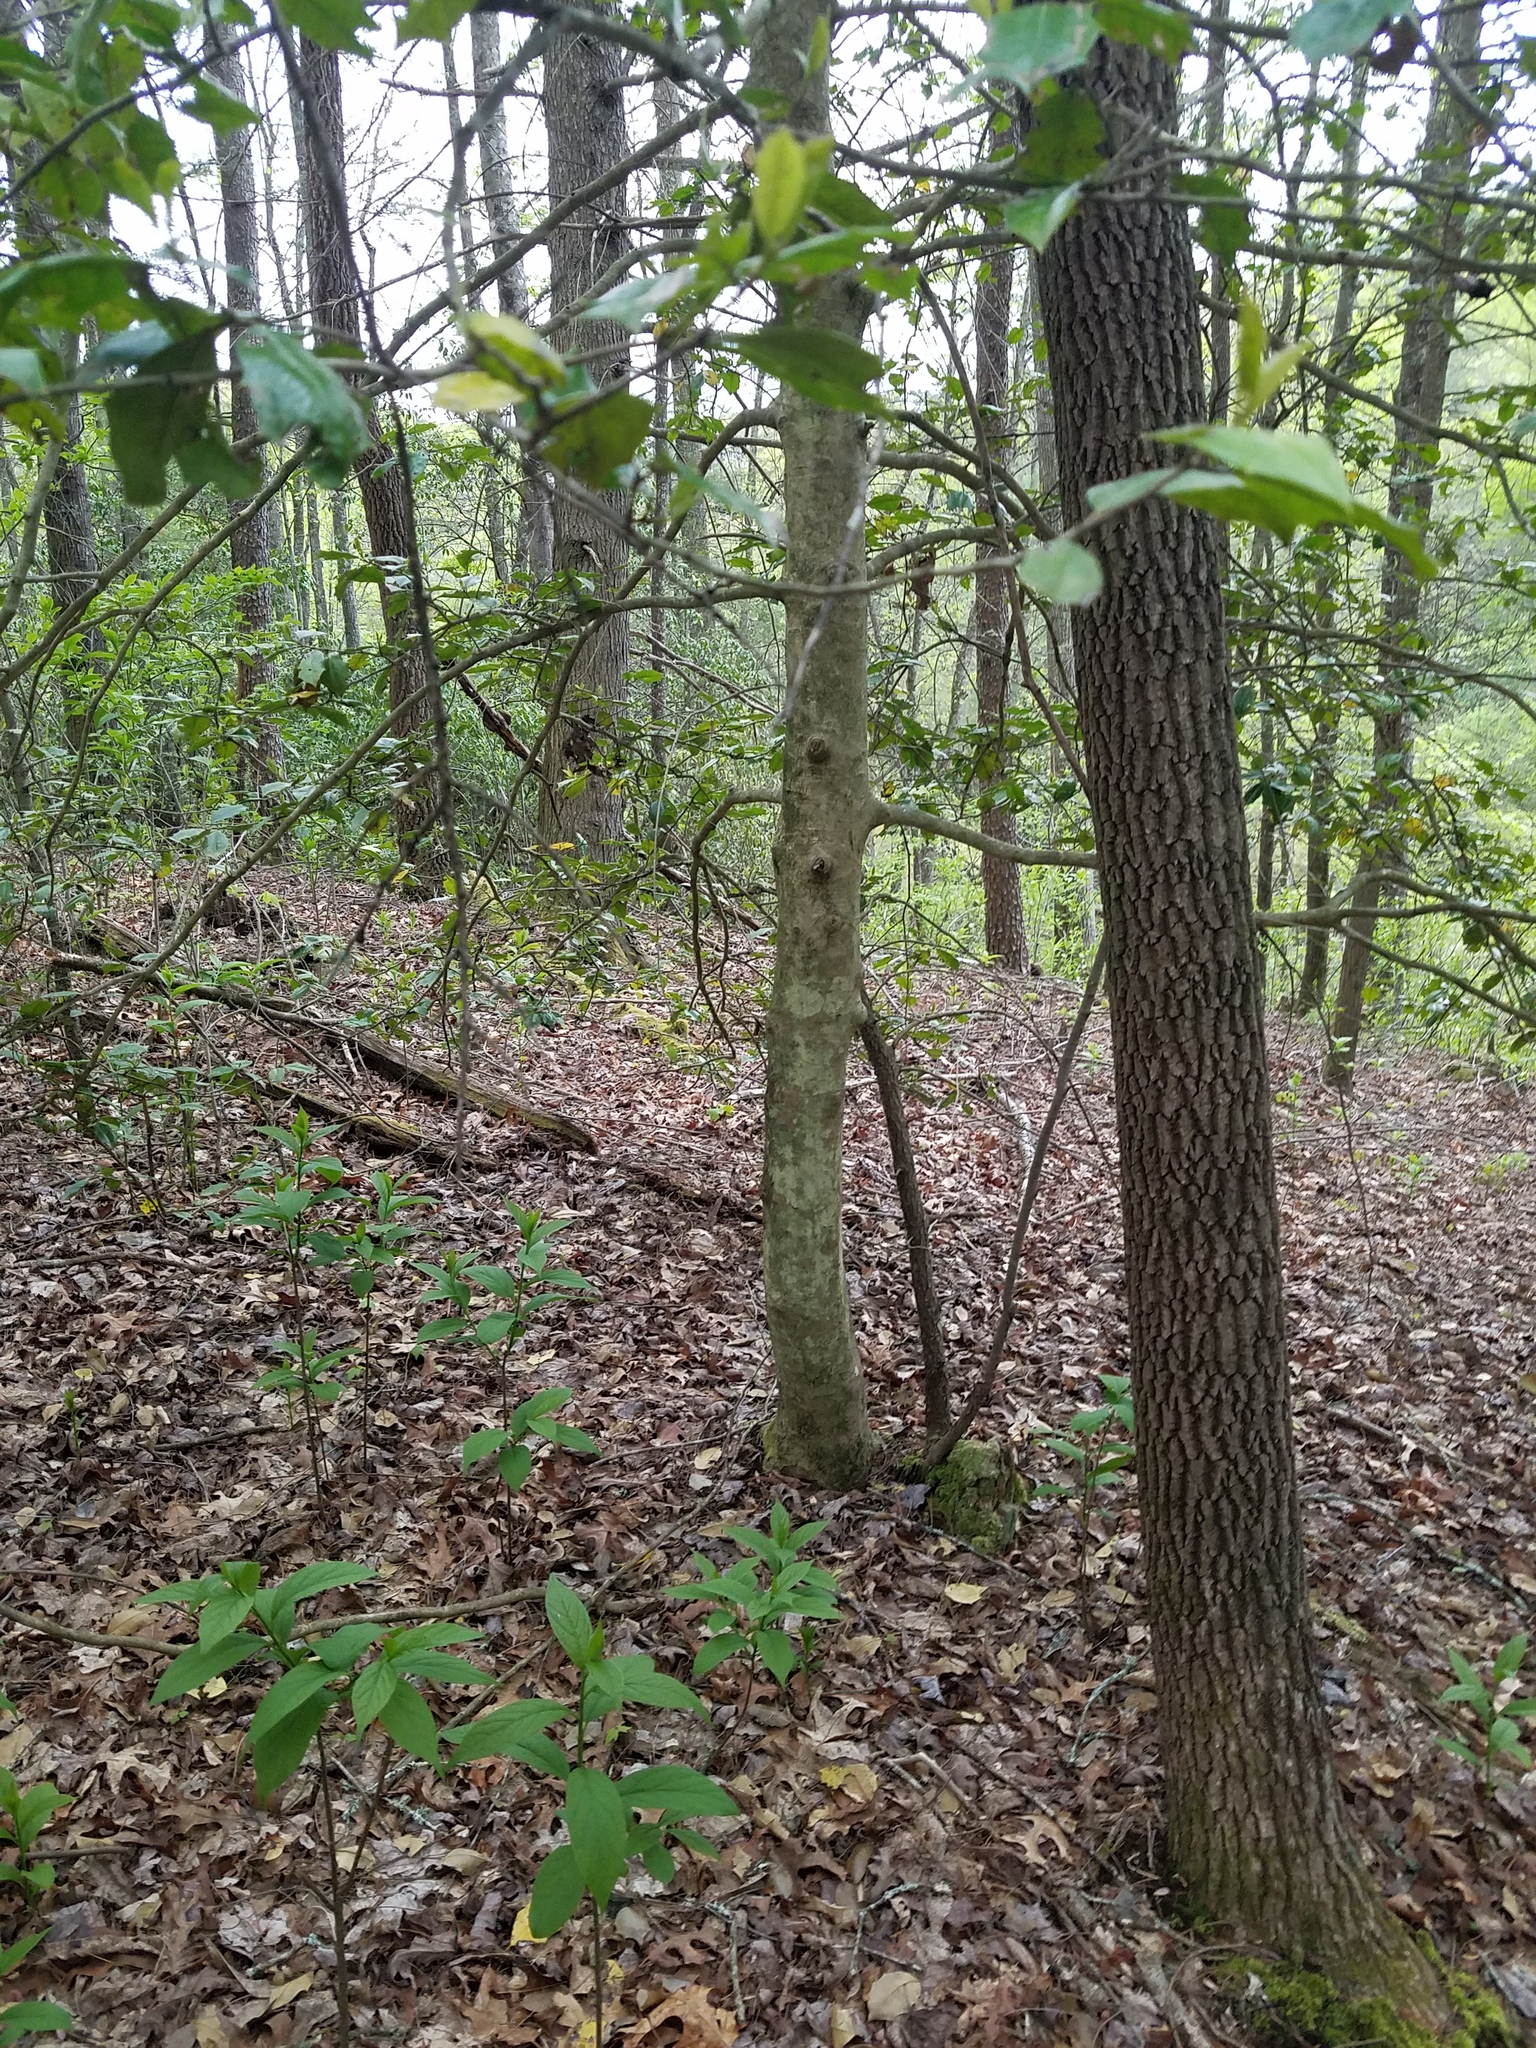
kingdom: Plantae
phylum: Tracheophyta
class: Magnoliopsida
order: Aquifoliales
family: Aquifoliaceae
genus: Ilex
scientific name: Ilex opaca
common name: American holly
